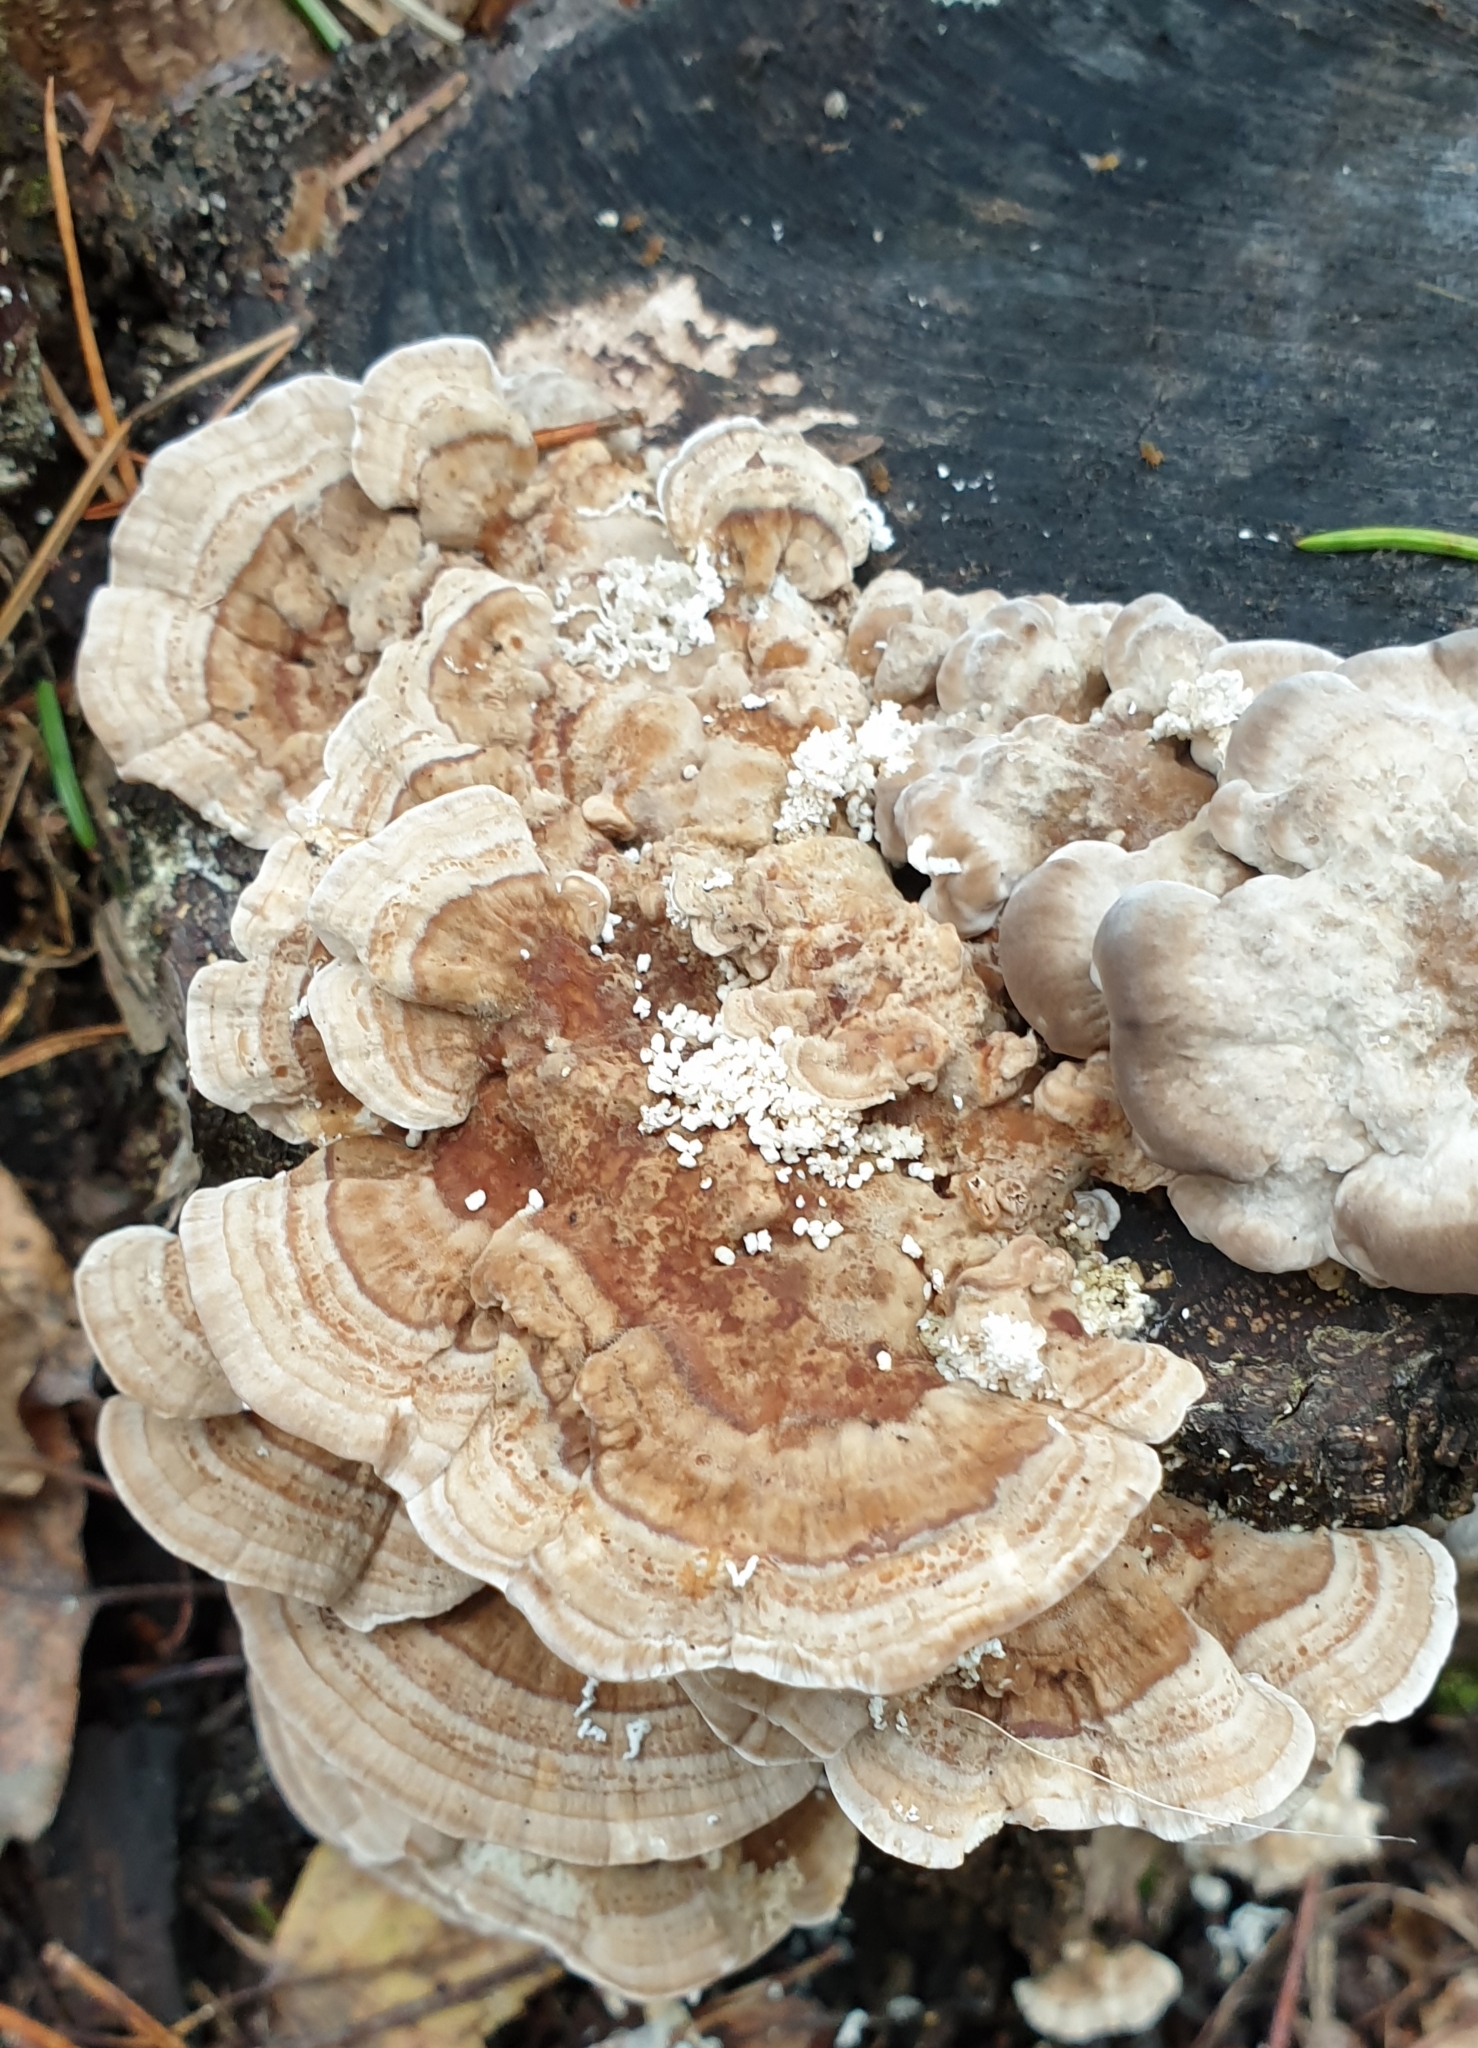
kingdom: Fungi
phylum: Basidiomycota
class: Agaricomycetes
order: Polyporales
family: Polyporaceae
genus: Trametes
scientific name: Trametes ochracea
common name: Ochre bracket
